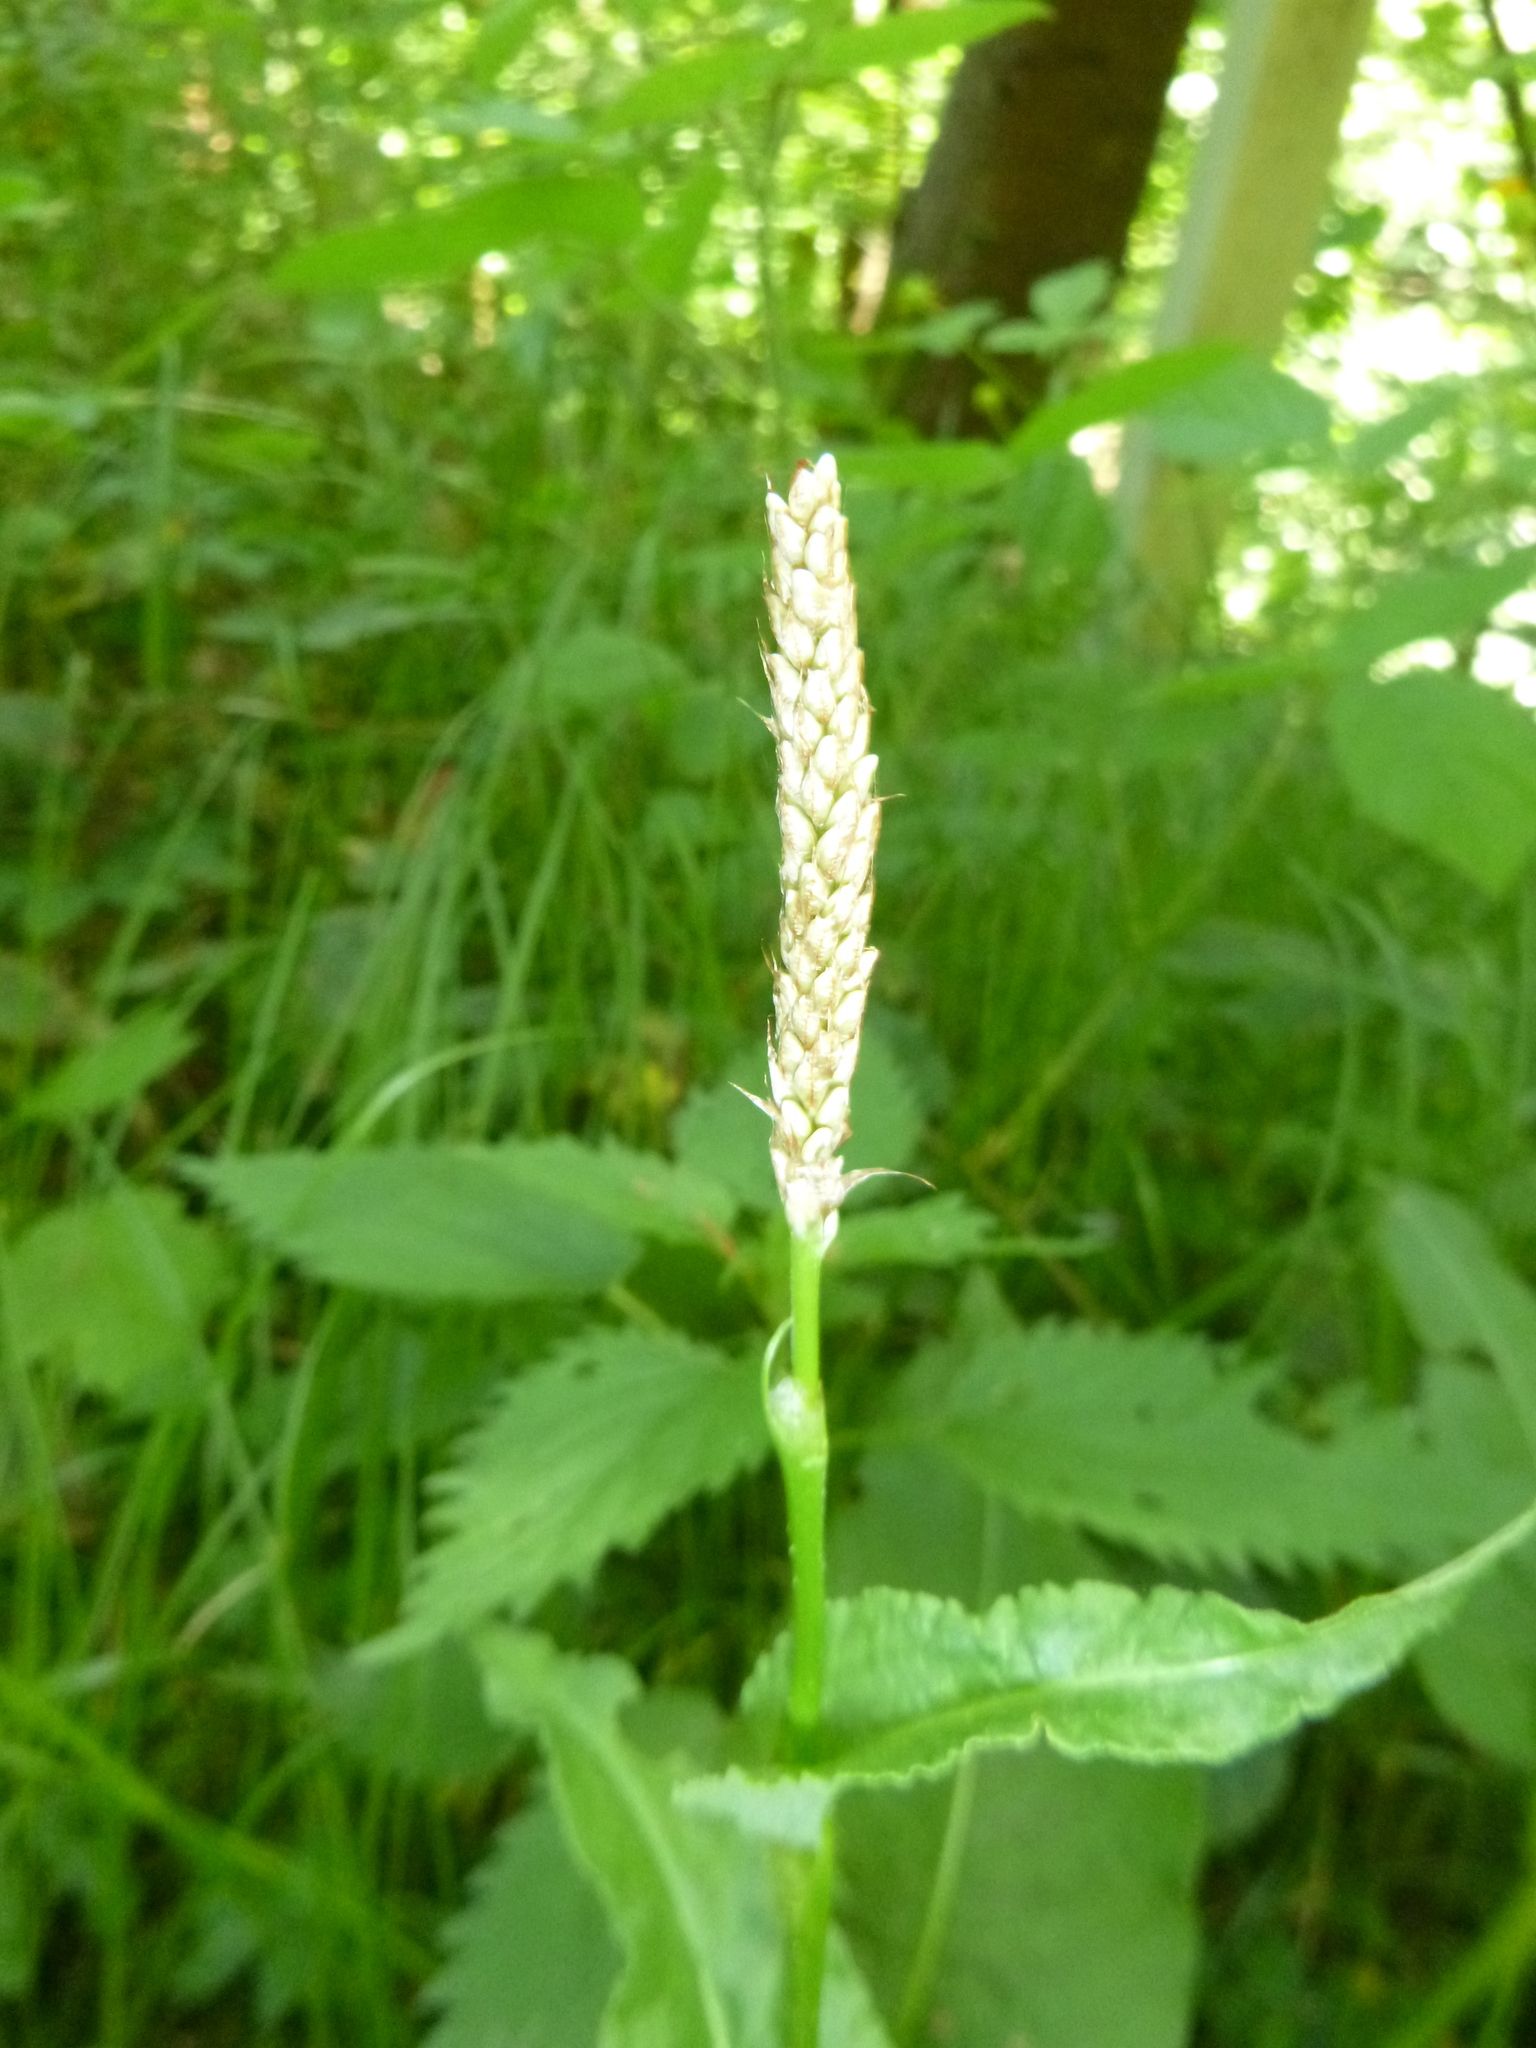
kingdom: Plantae
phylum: Tracheophyta
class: Magnoliopsida
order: Caryophyllales
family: Polygonaceae
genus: Bistorta
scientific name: Bistorta officinalis
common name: Common bistort
